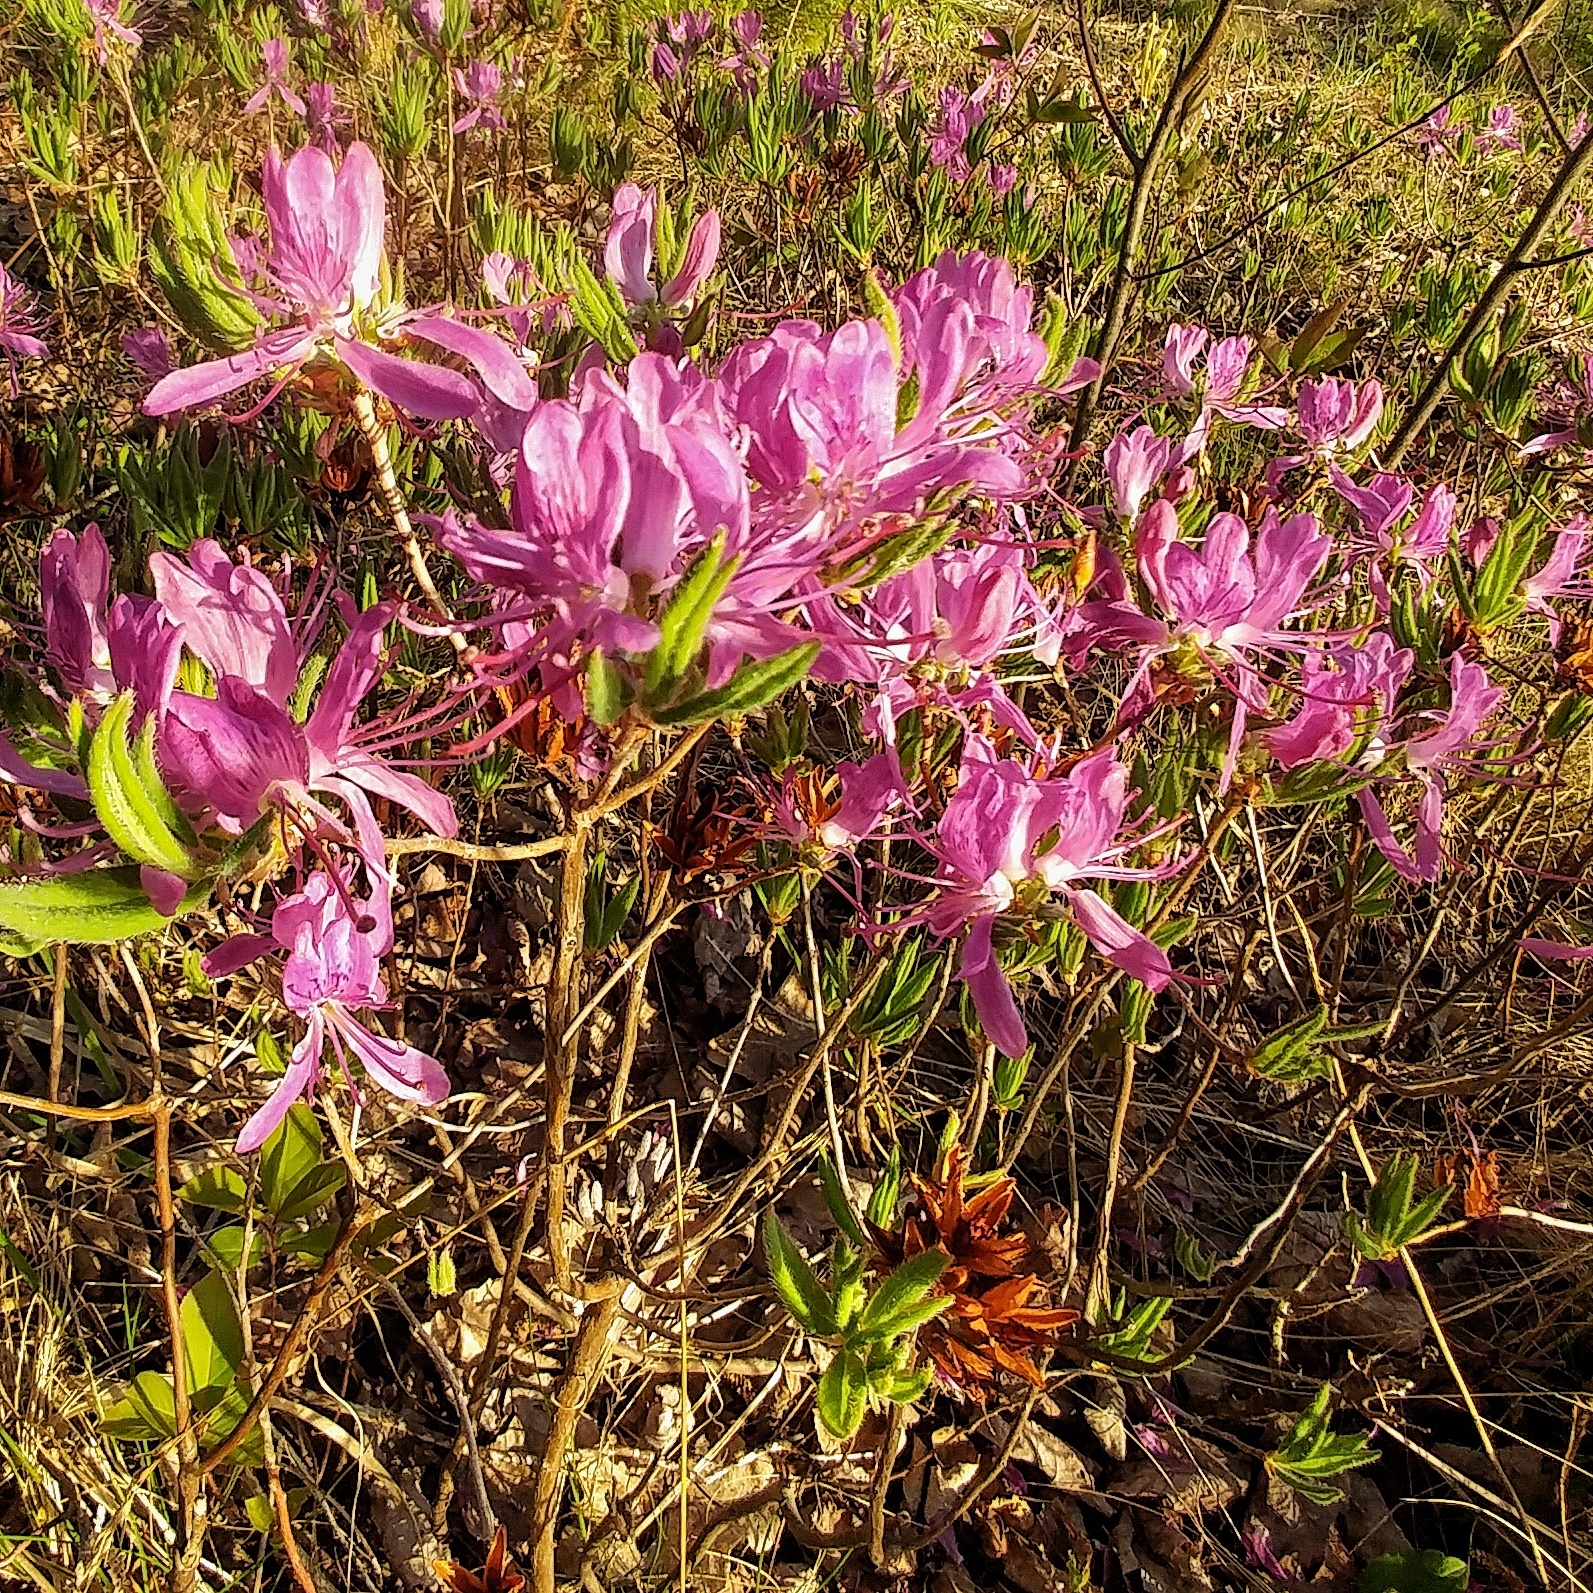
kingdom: Plantae
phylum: Tracheophyta
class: Magnoliopsida
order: Ericales
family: Ericaceae
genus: Rhododendron
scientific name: Rhododendron canadense
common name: Rhodora
